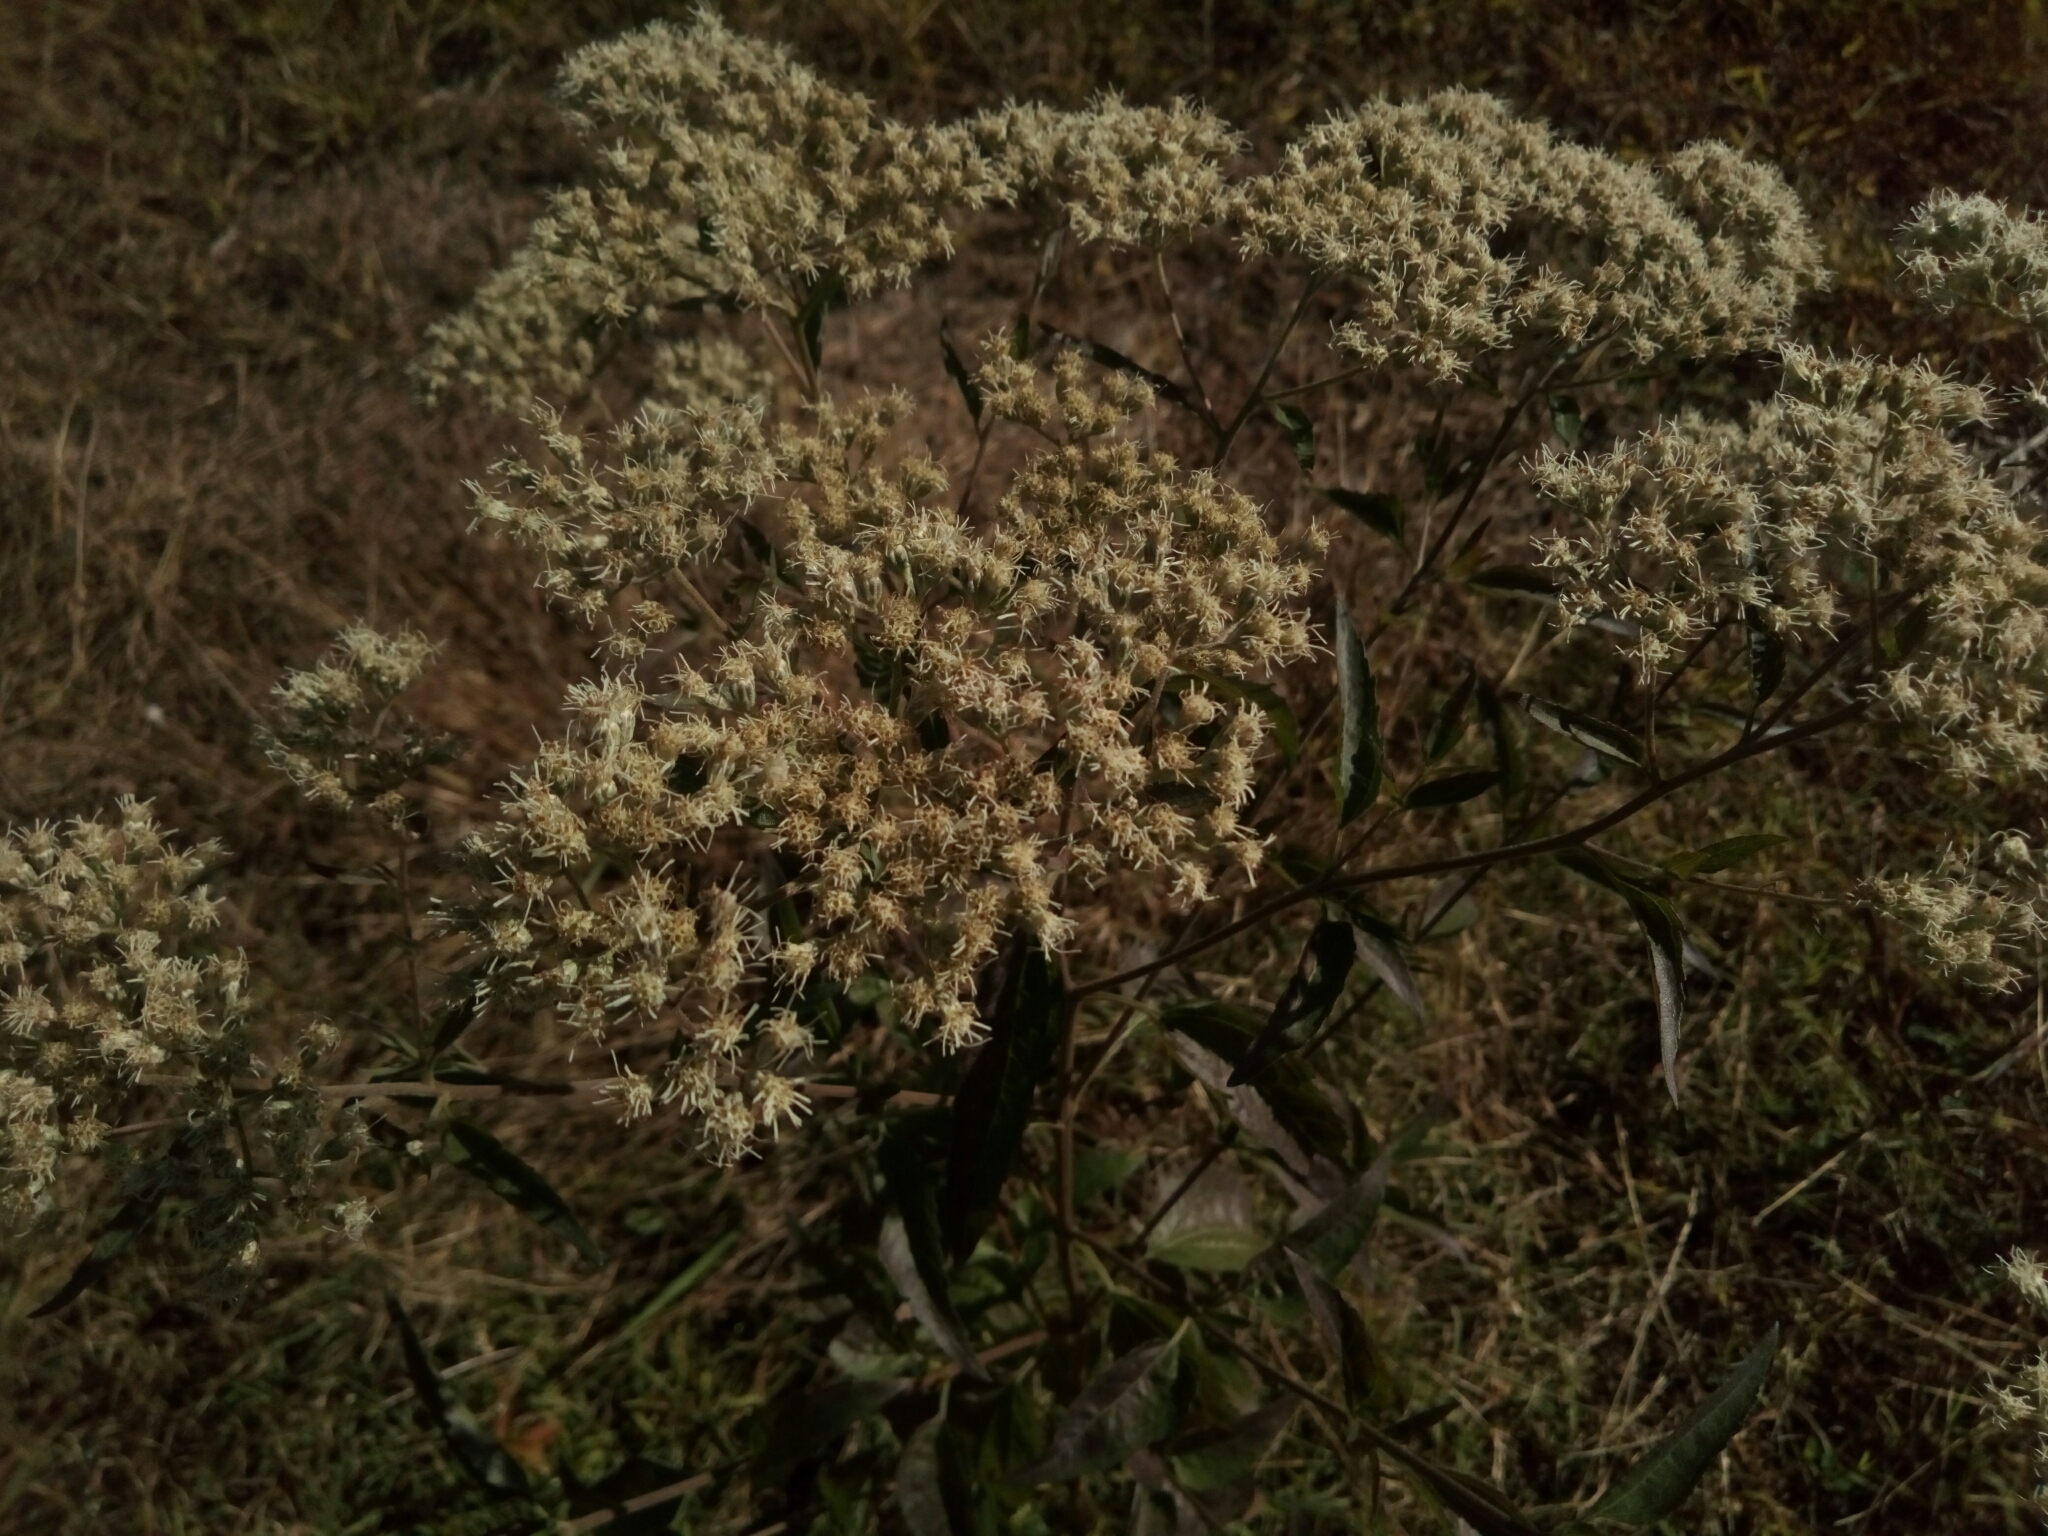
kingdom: Plantae
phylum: Tracheophyta
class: Magnoliopsida
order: Asterales
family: Asteraceae
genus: Eupatorium
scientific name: Eupatorium serotinum
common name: Late boneset
